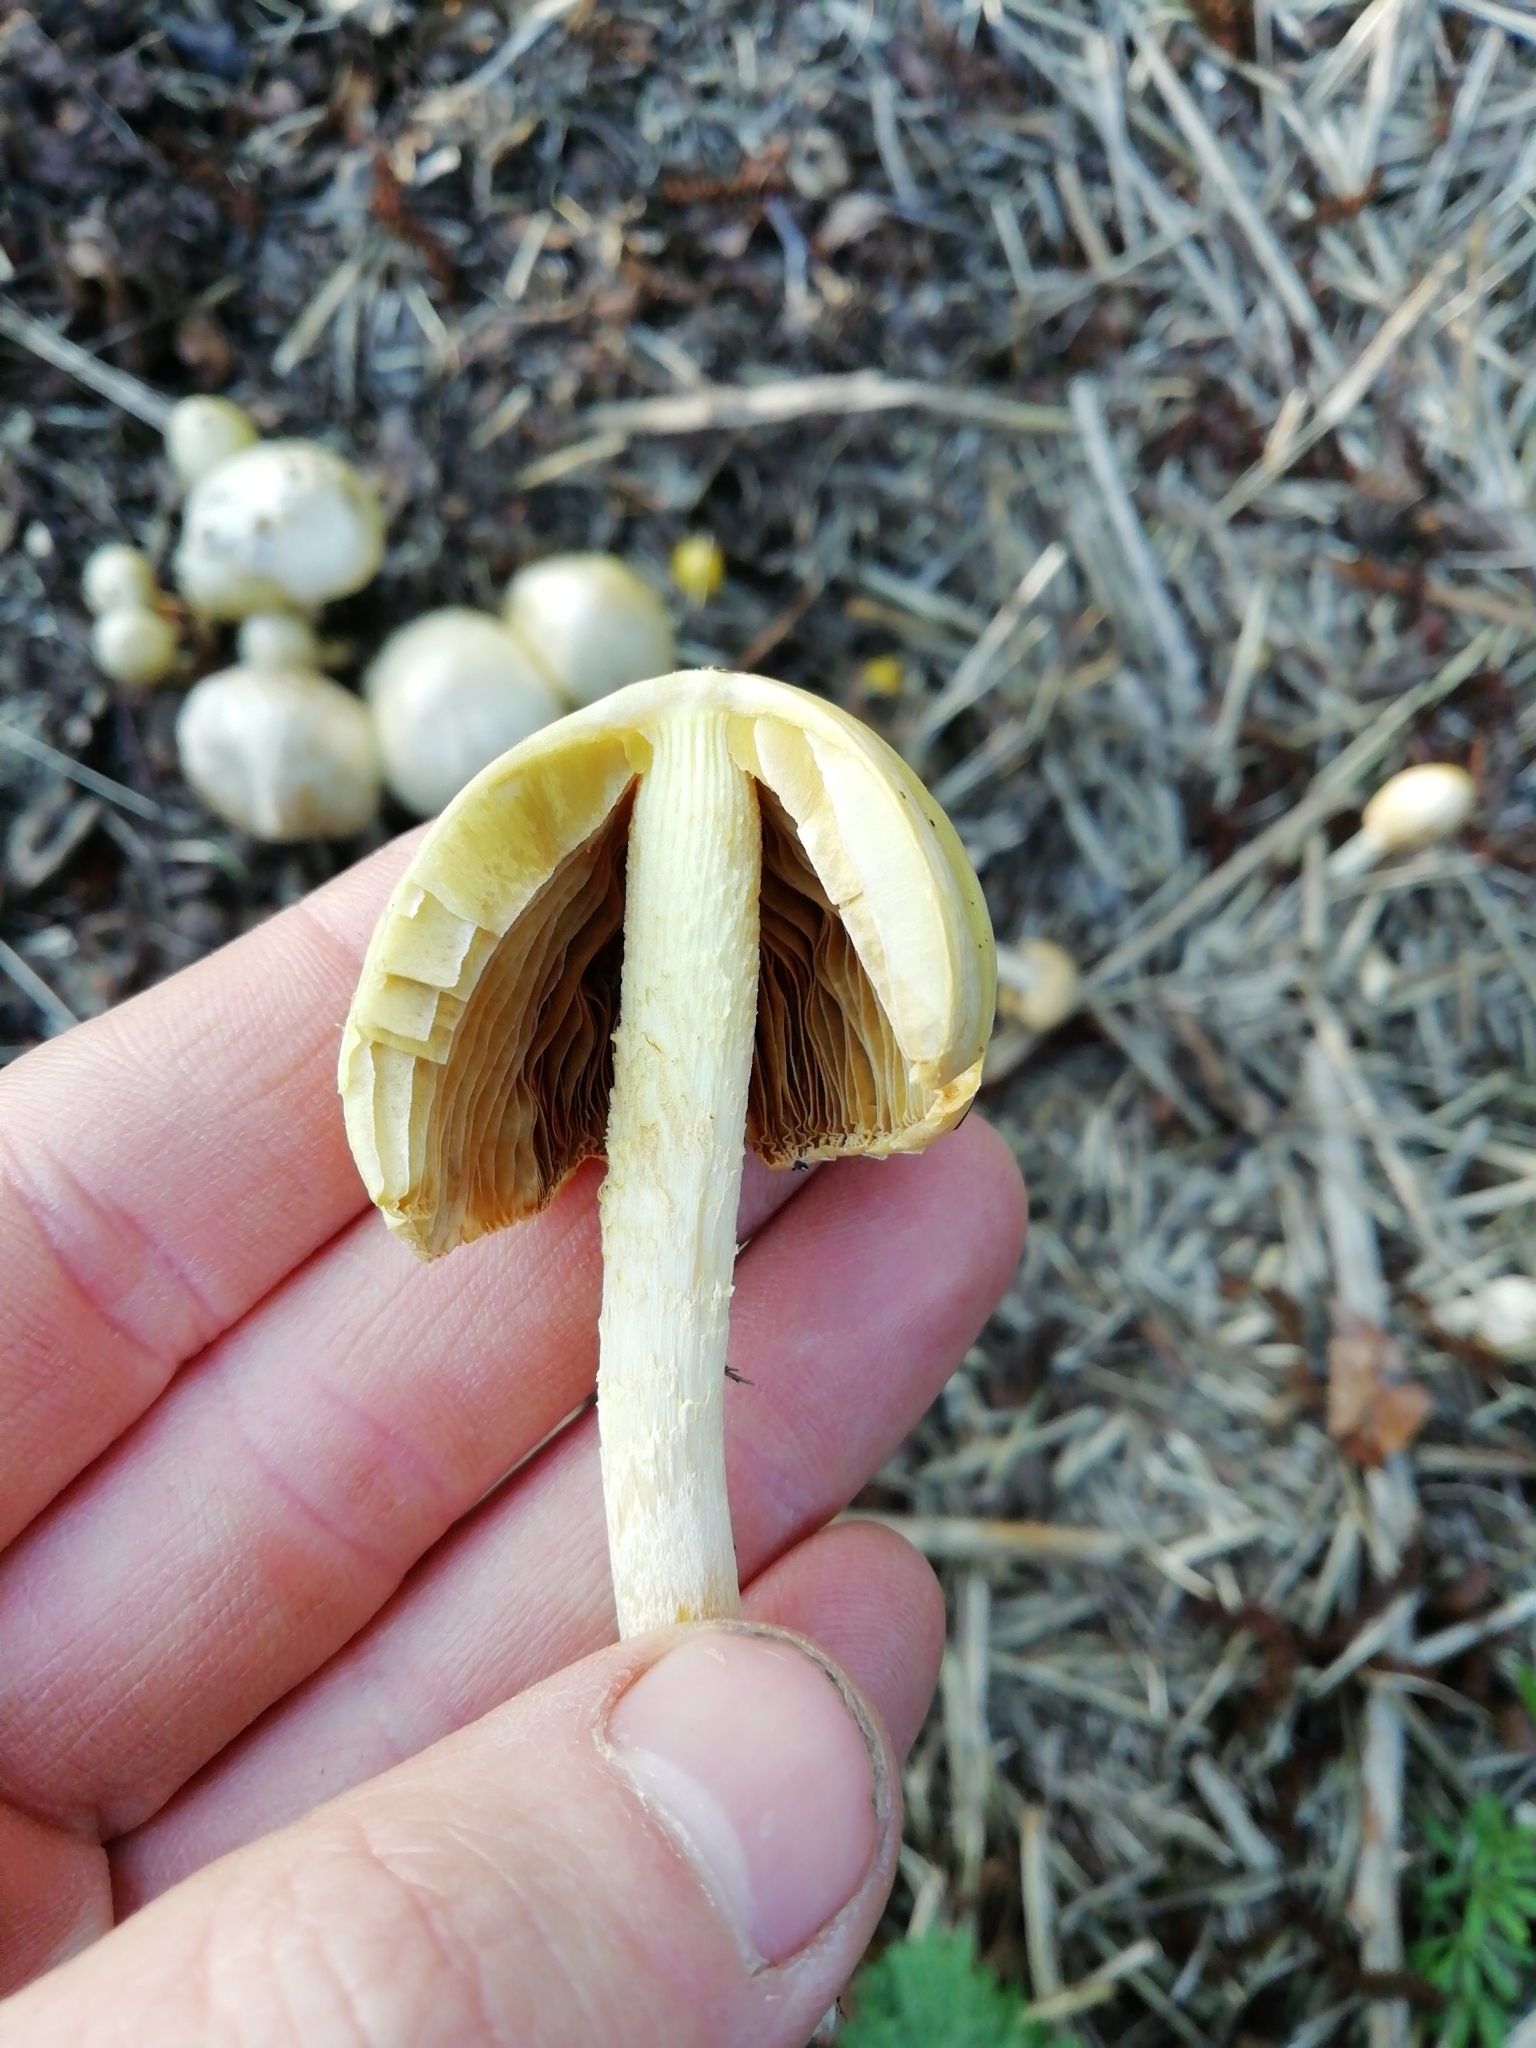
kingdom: Fungi
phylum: Basidiomycota
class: Agaricomycetes
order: Agaricales
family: Bolbitiaceae
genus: Bolbitius
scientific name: Bolbitius titubans
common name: Yellow fieldcap
